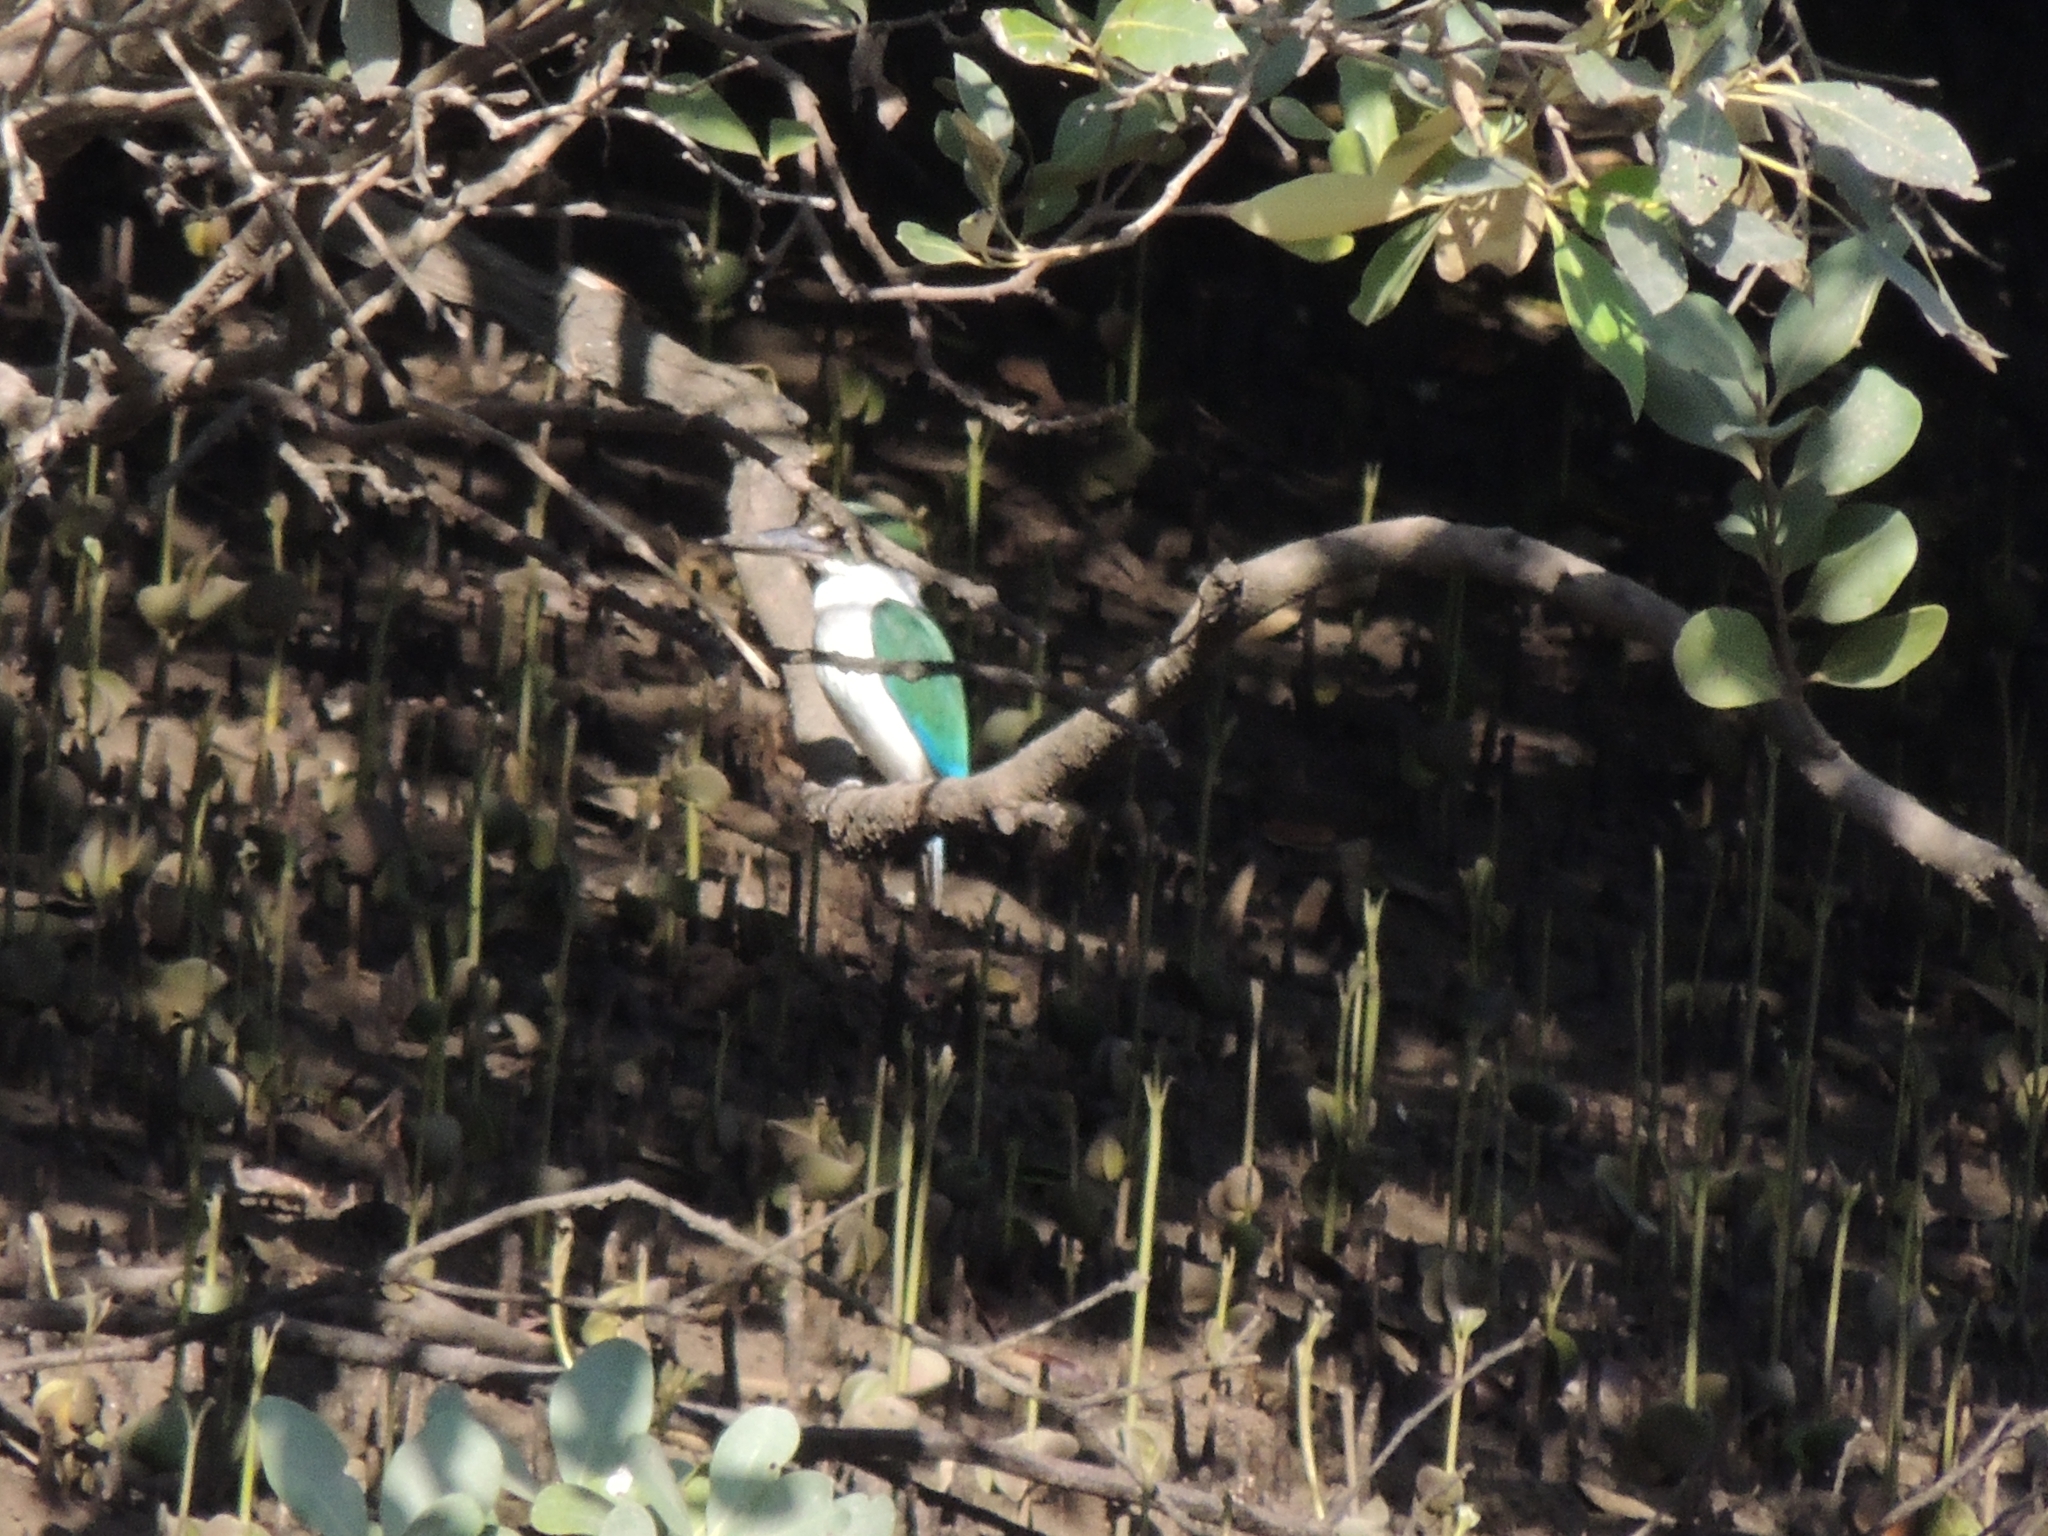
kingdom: Animalia
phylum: Chordata
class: Aves
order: Coraciiformes
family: Alcedinidae
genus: Todiramphus
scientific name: Todiramphus sordidus
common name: Torresian kingfisher
